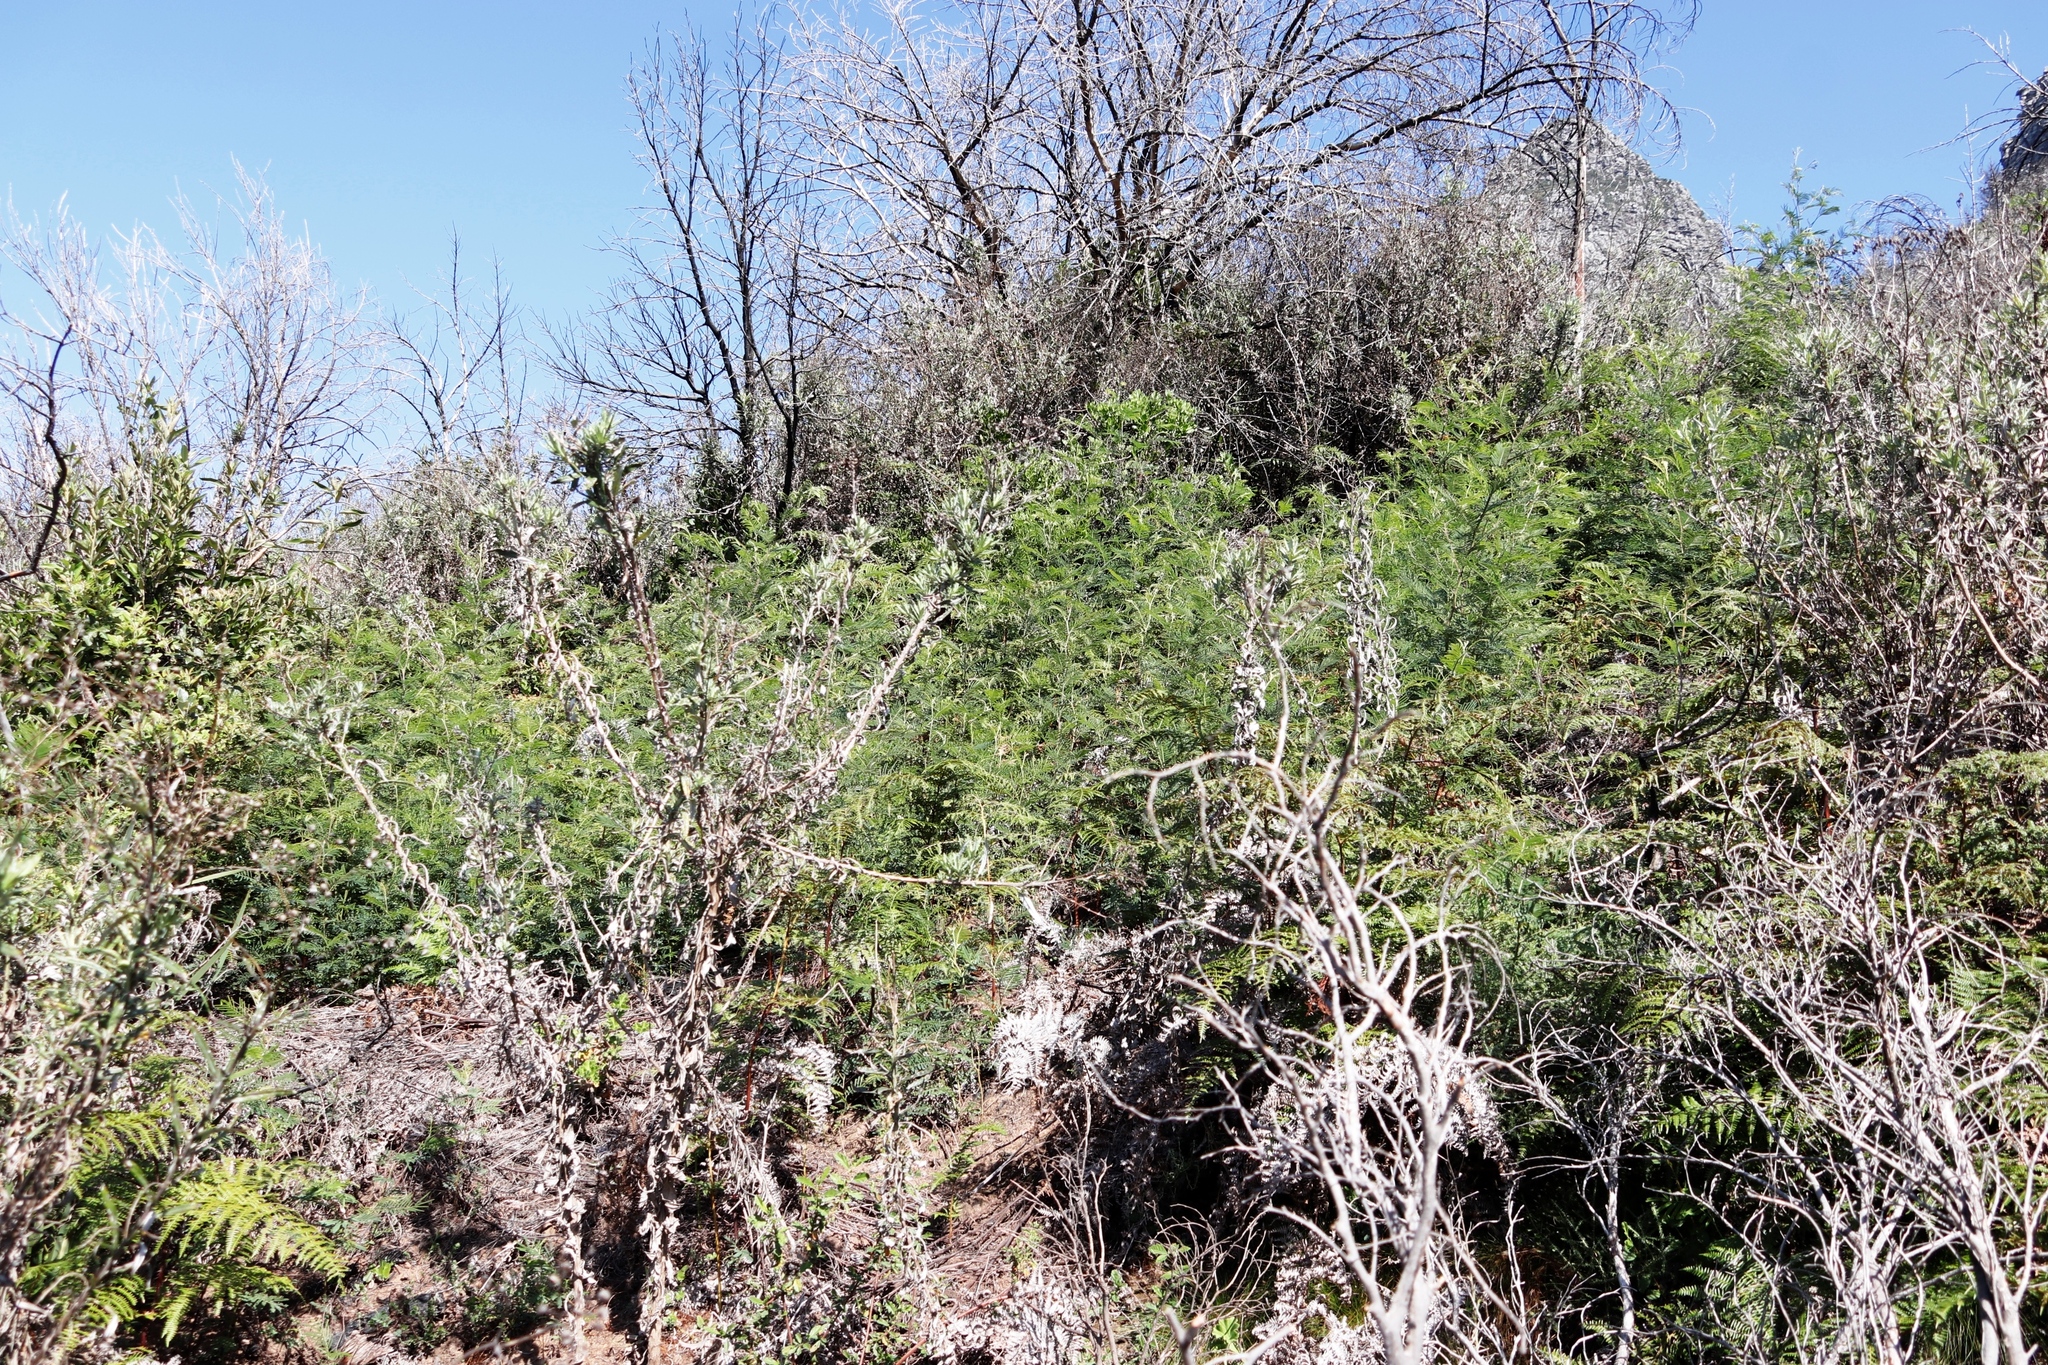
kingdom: Plantae
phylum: Tracheophyta
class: Magnoliopsida
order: Fabales
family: Fabaceae
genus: Acacia
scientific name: Acacia mearnsii
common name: Black wattle
